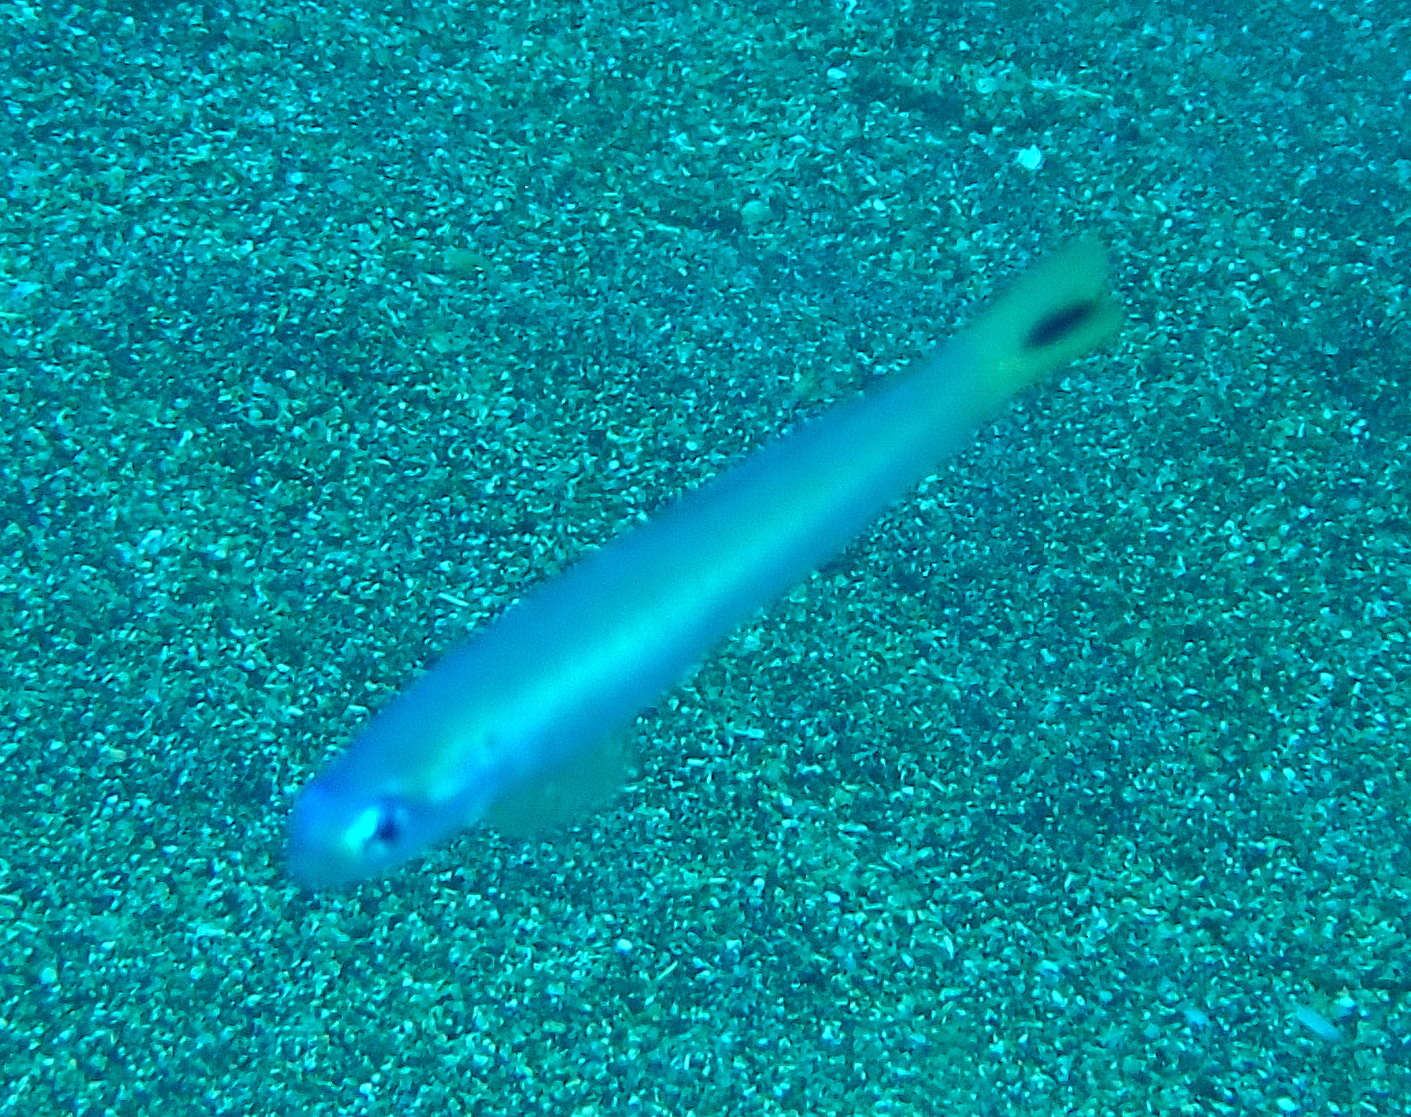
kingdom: Animalia
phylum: Chordata
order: Perciformes
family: Microdesmidae
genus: Ptereleotris
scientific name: Ptereleotris heteroptera
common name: Blacktail goby
